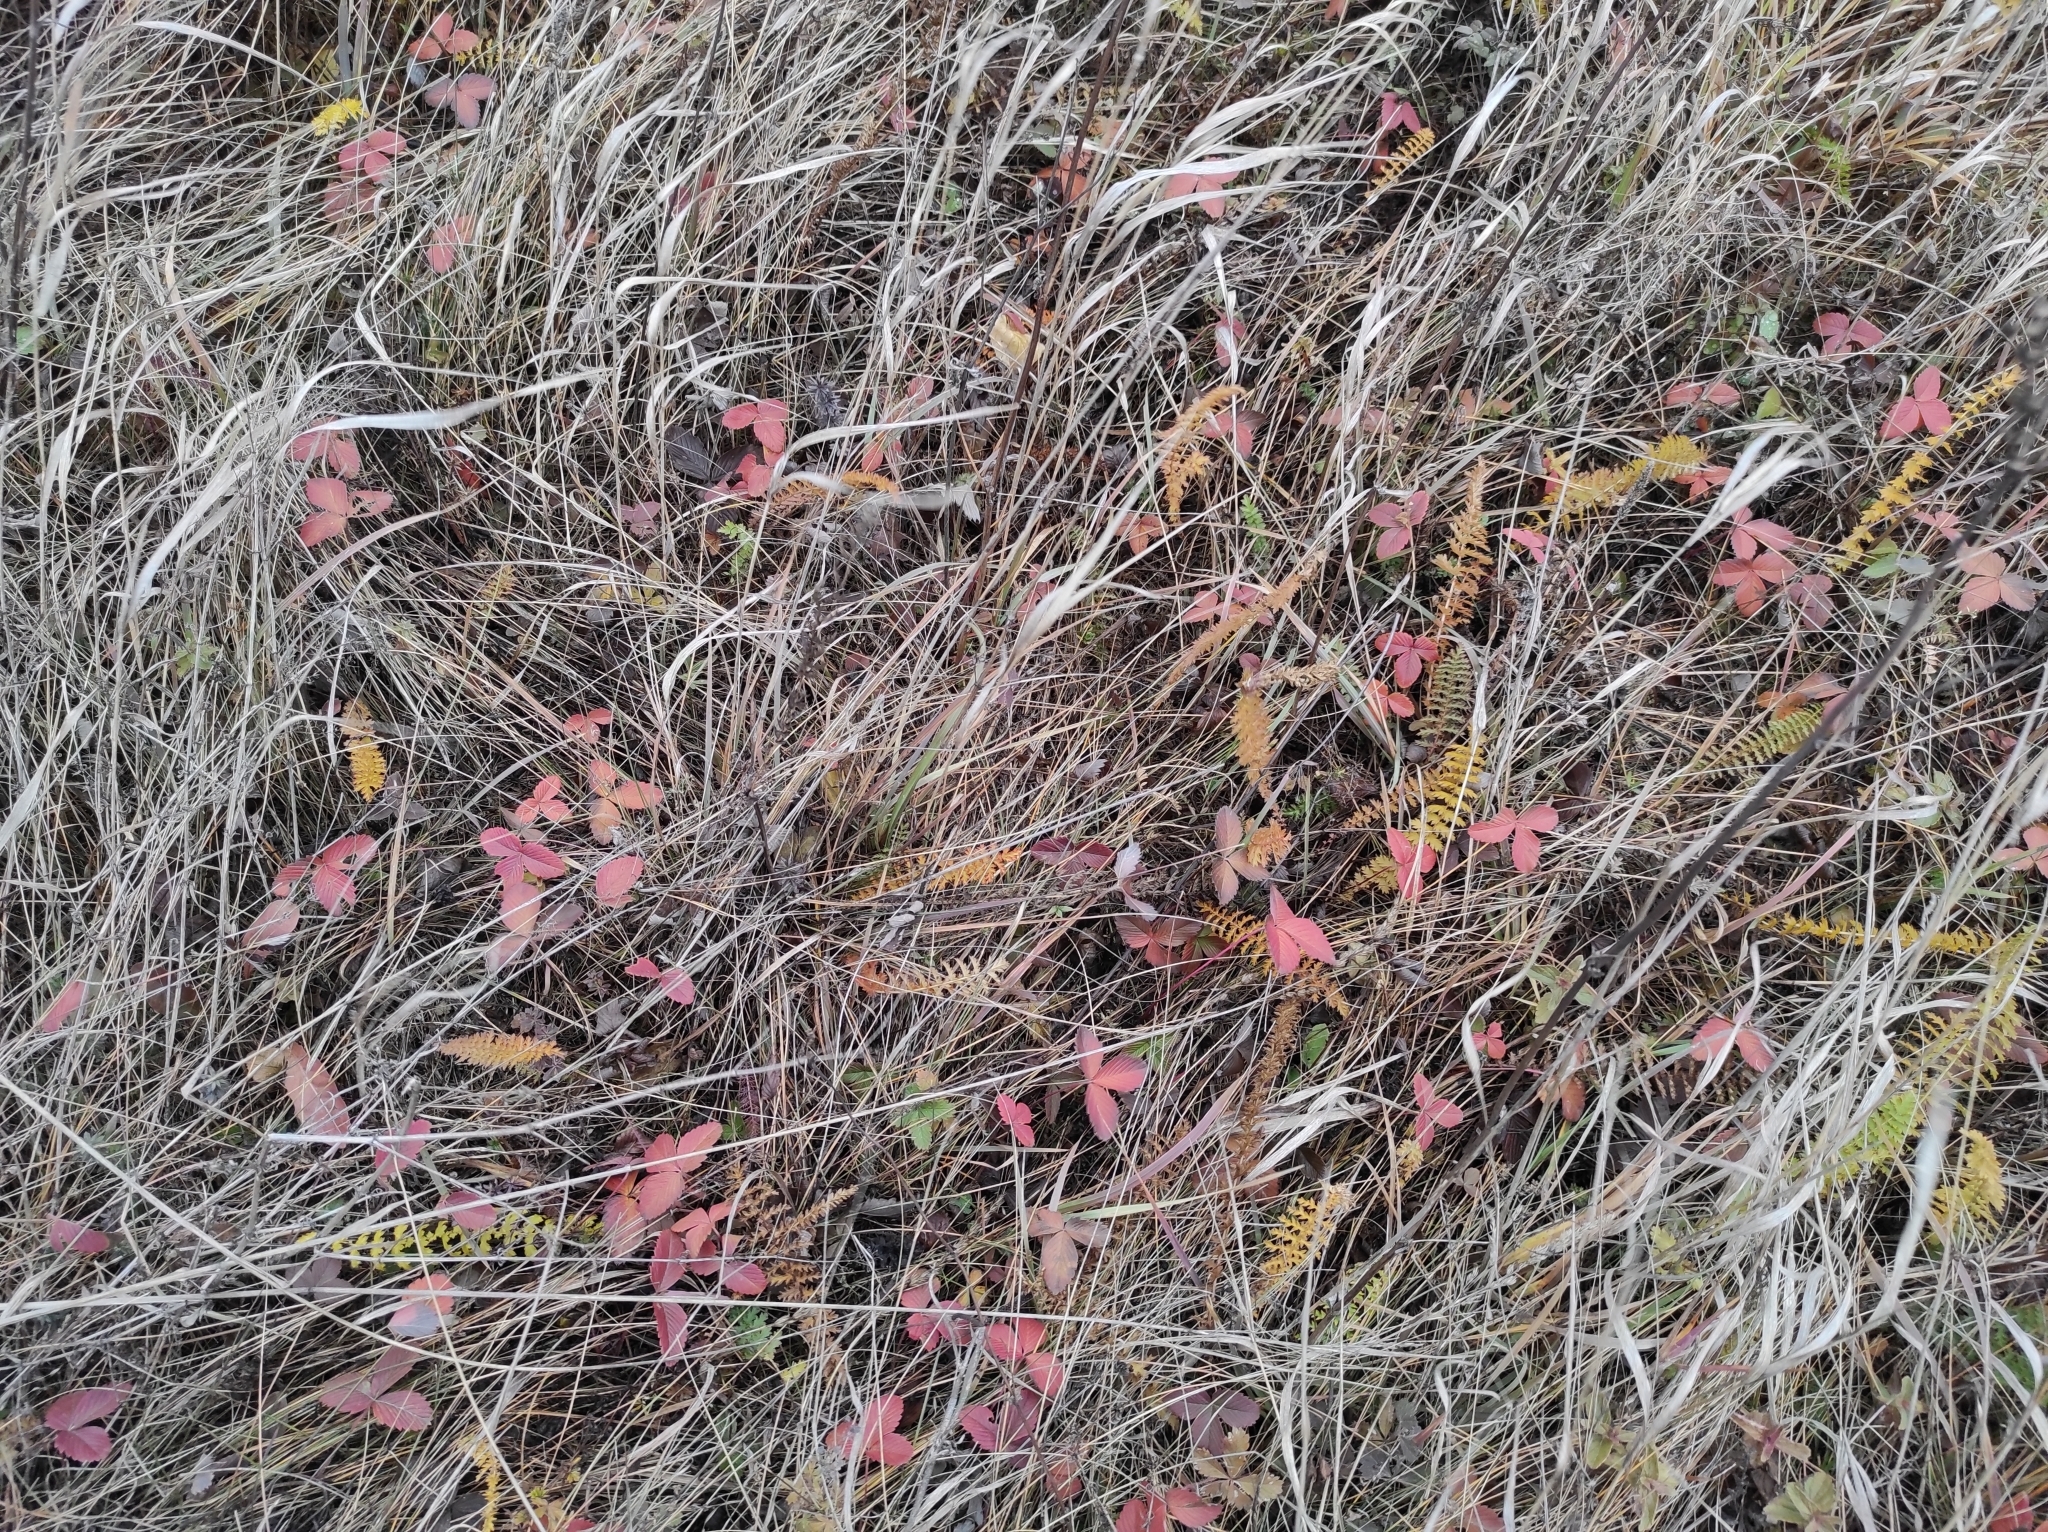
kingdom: Plantae
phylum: Tracheophyta
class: Magnoliopsida
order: Rosales
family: Rosaceae
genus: Fragaria
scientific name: Fragaria viridis
